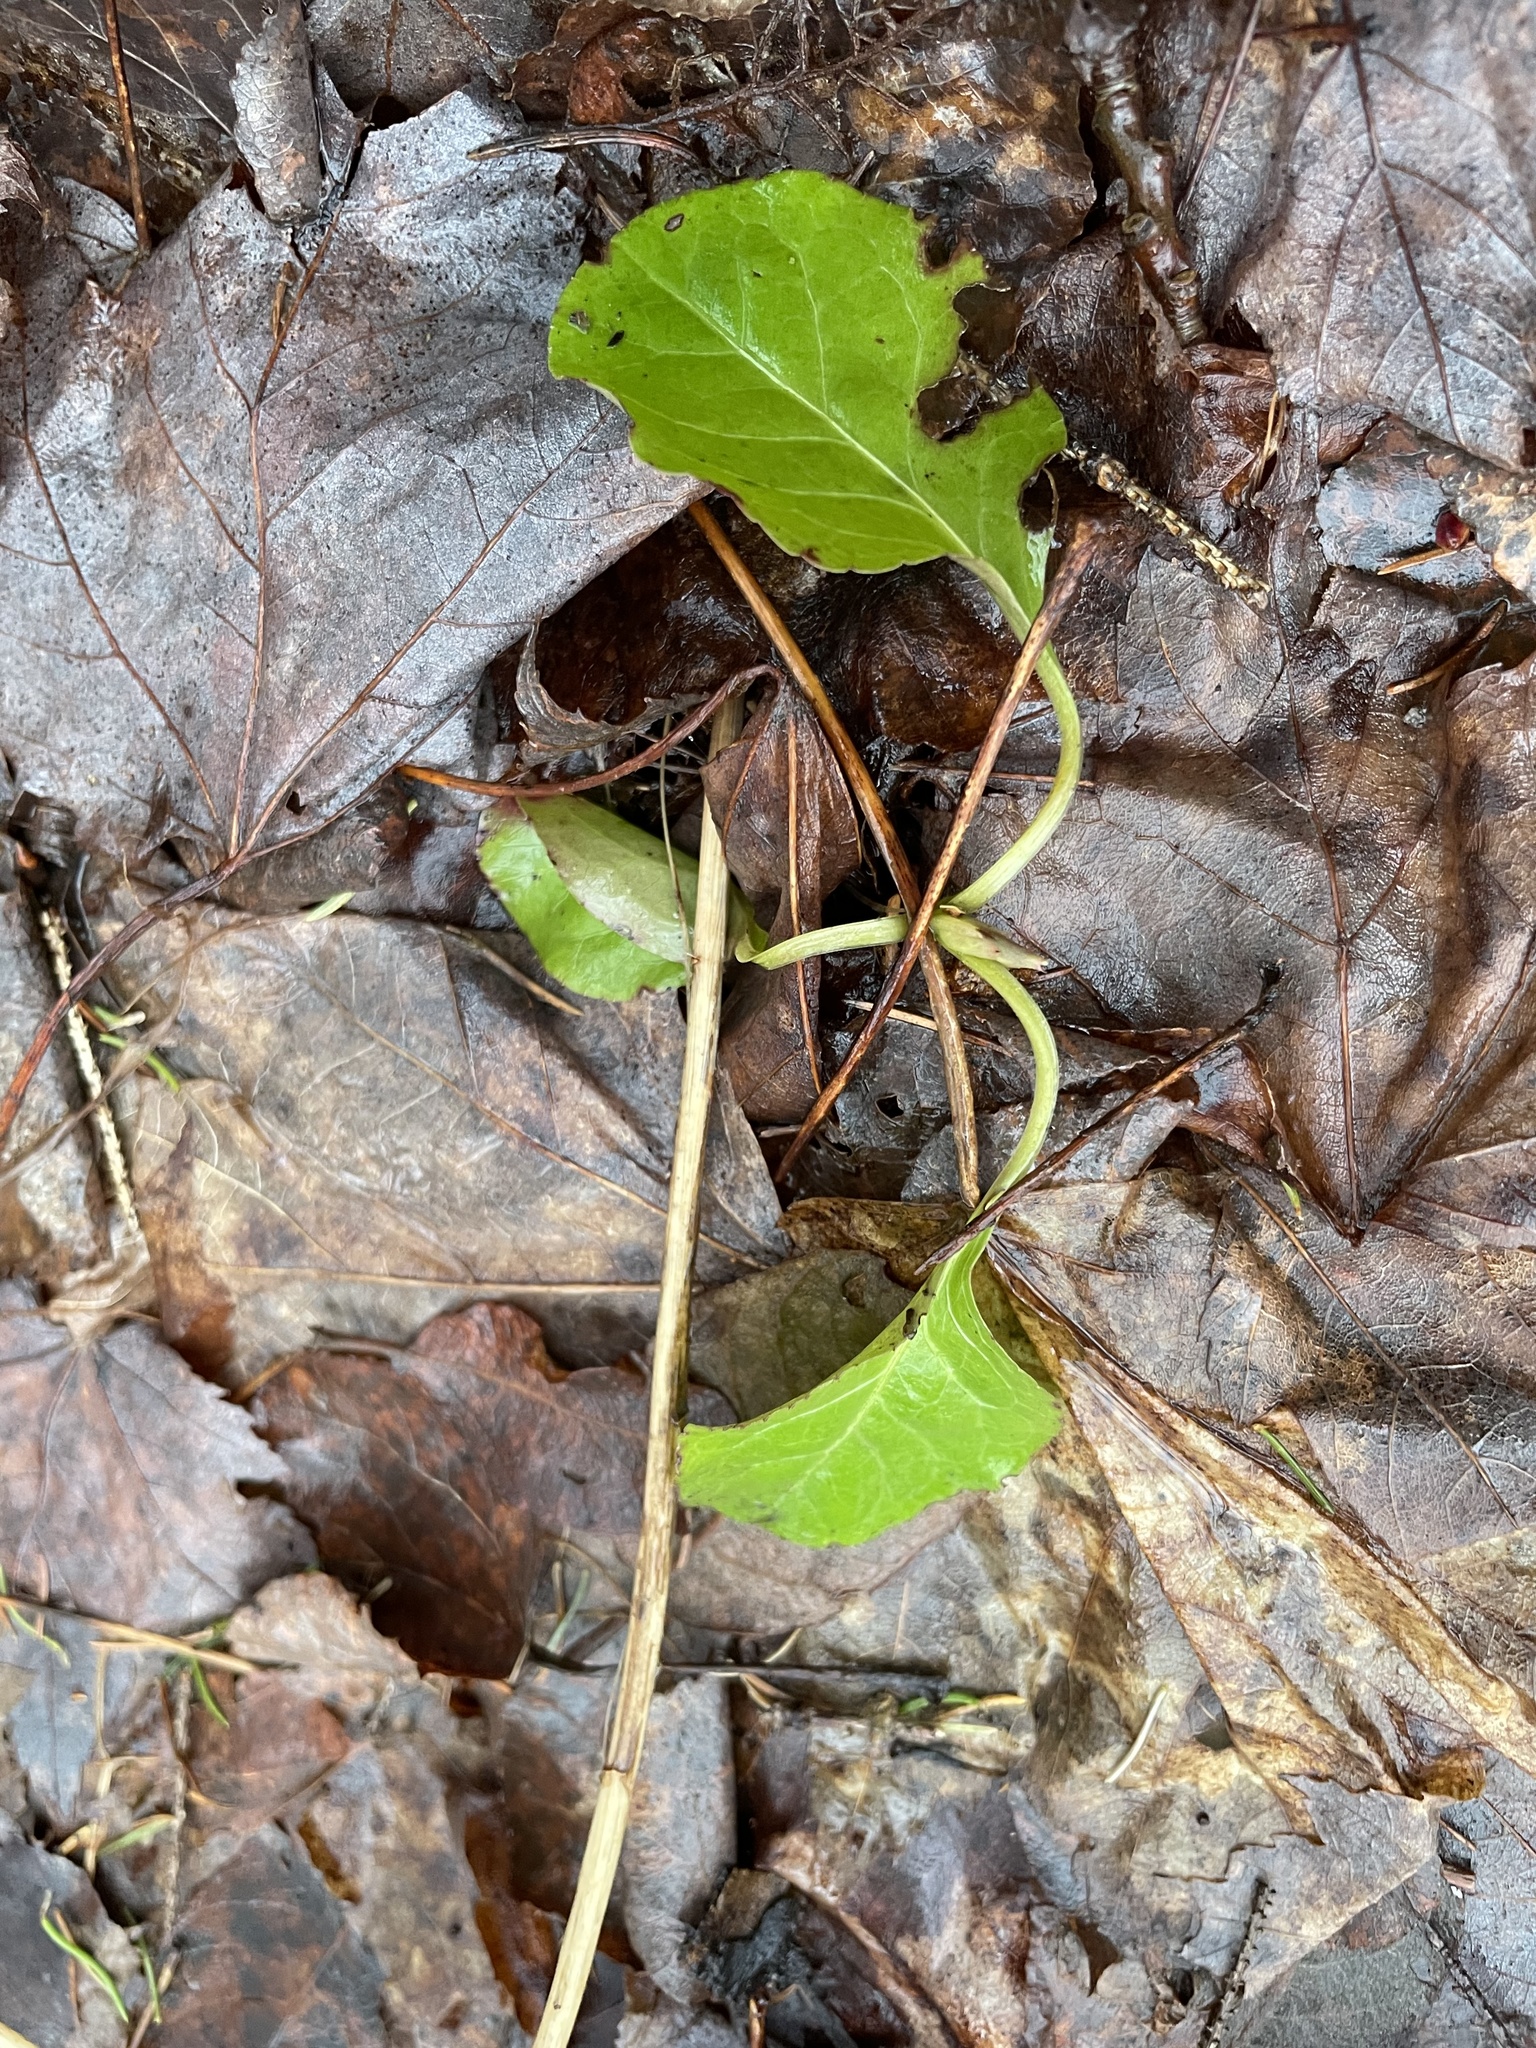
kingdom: Plantae
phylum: Tracheophyta
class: Magnoliopsida
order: Ericales
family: Ericaceae
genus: Pyrola
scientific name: Pyrola elliptica
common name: Shinleaf
